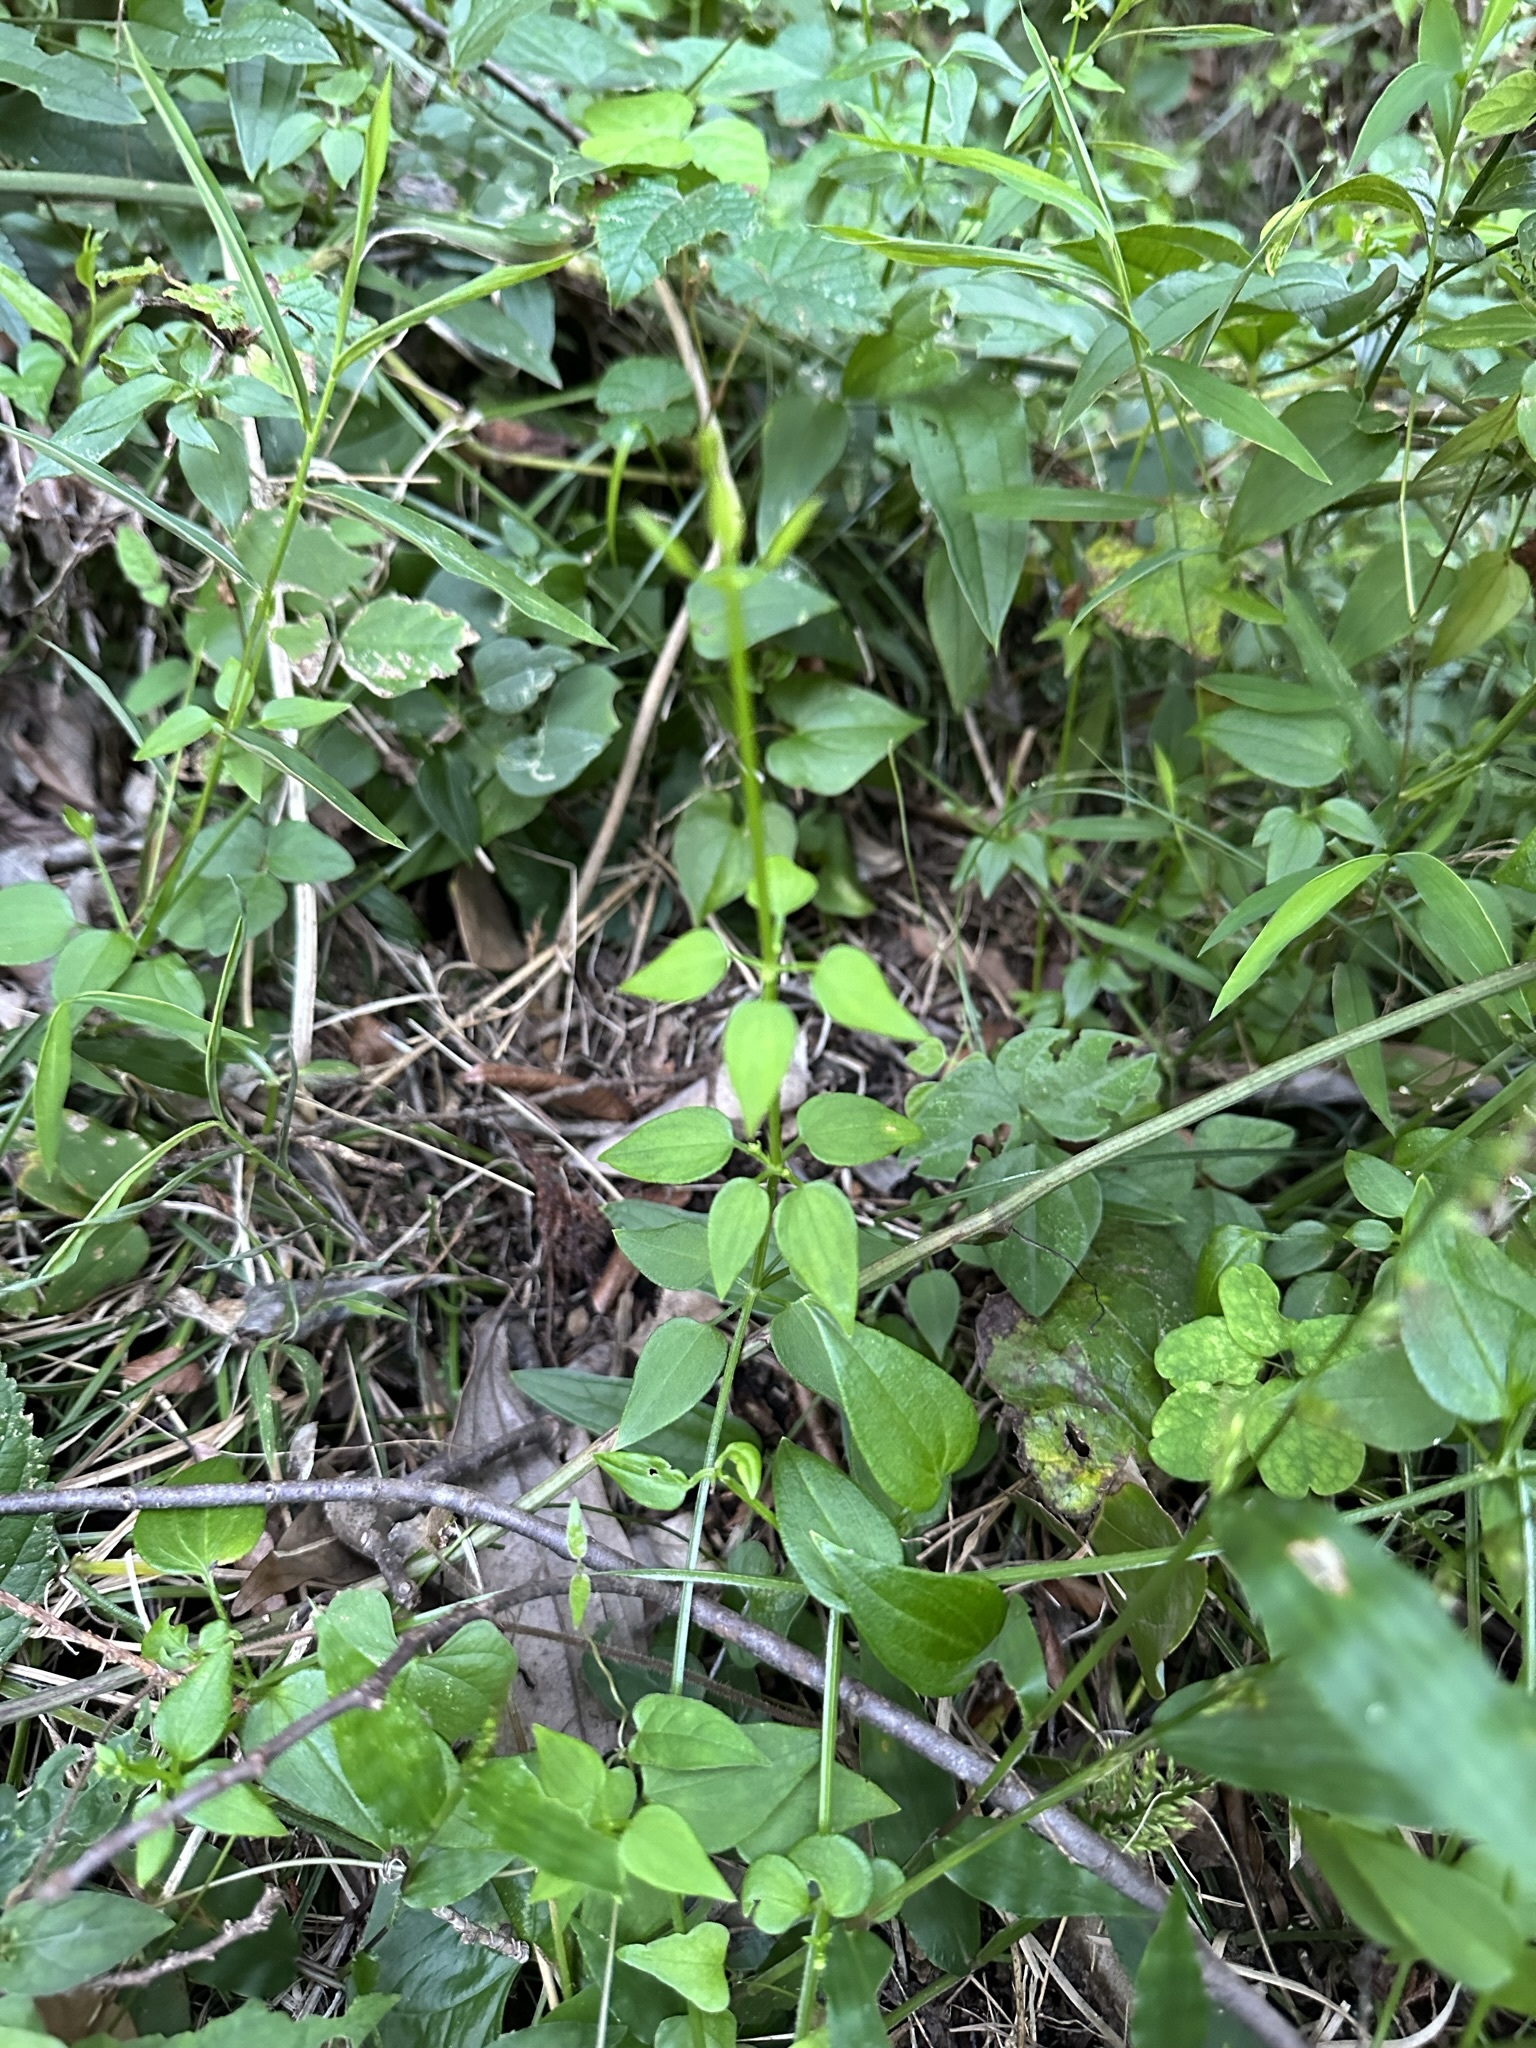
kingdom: Plantae
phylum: Tracheophyta
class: Magnoliopsida
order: Gentianales
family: Rubiaceae
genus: Rubia
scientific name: Rubia argyi
